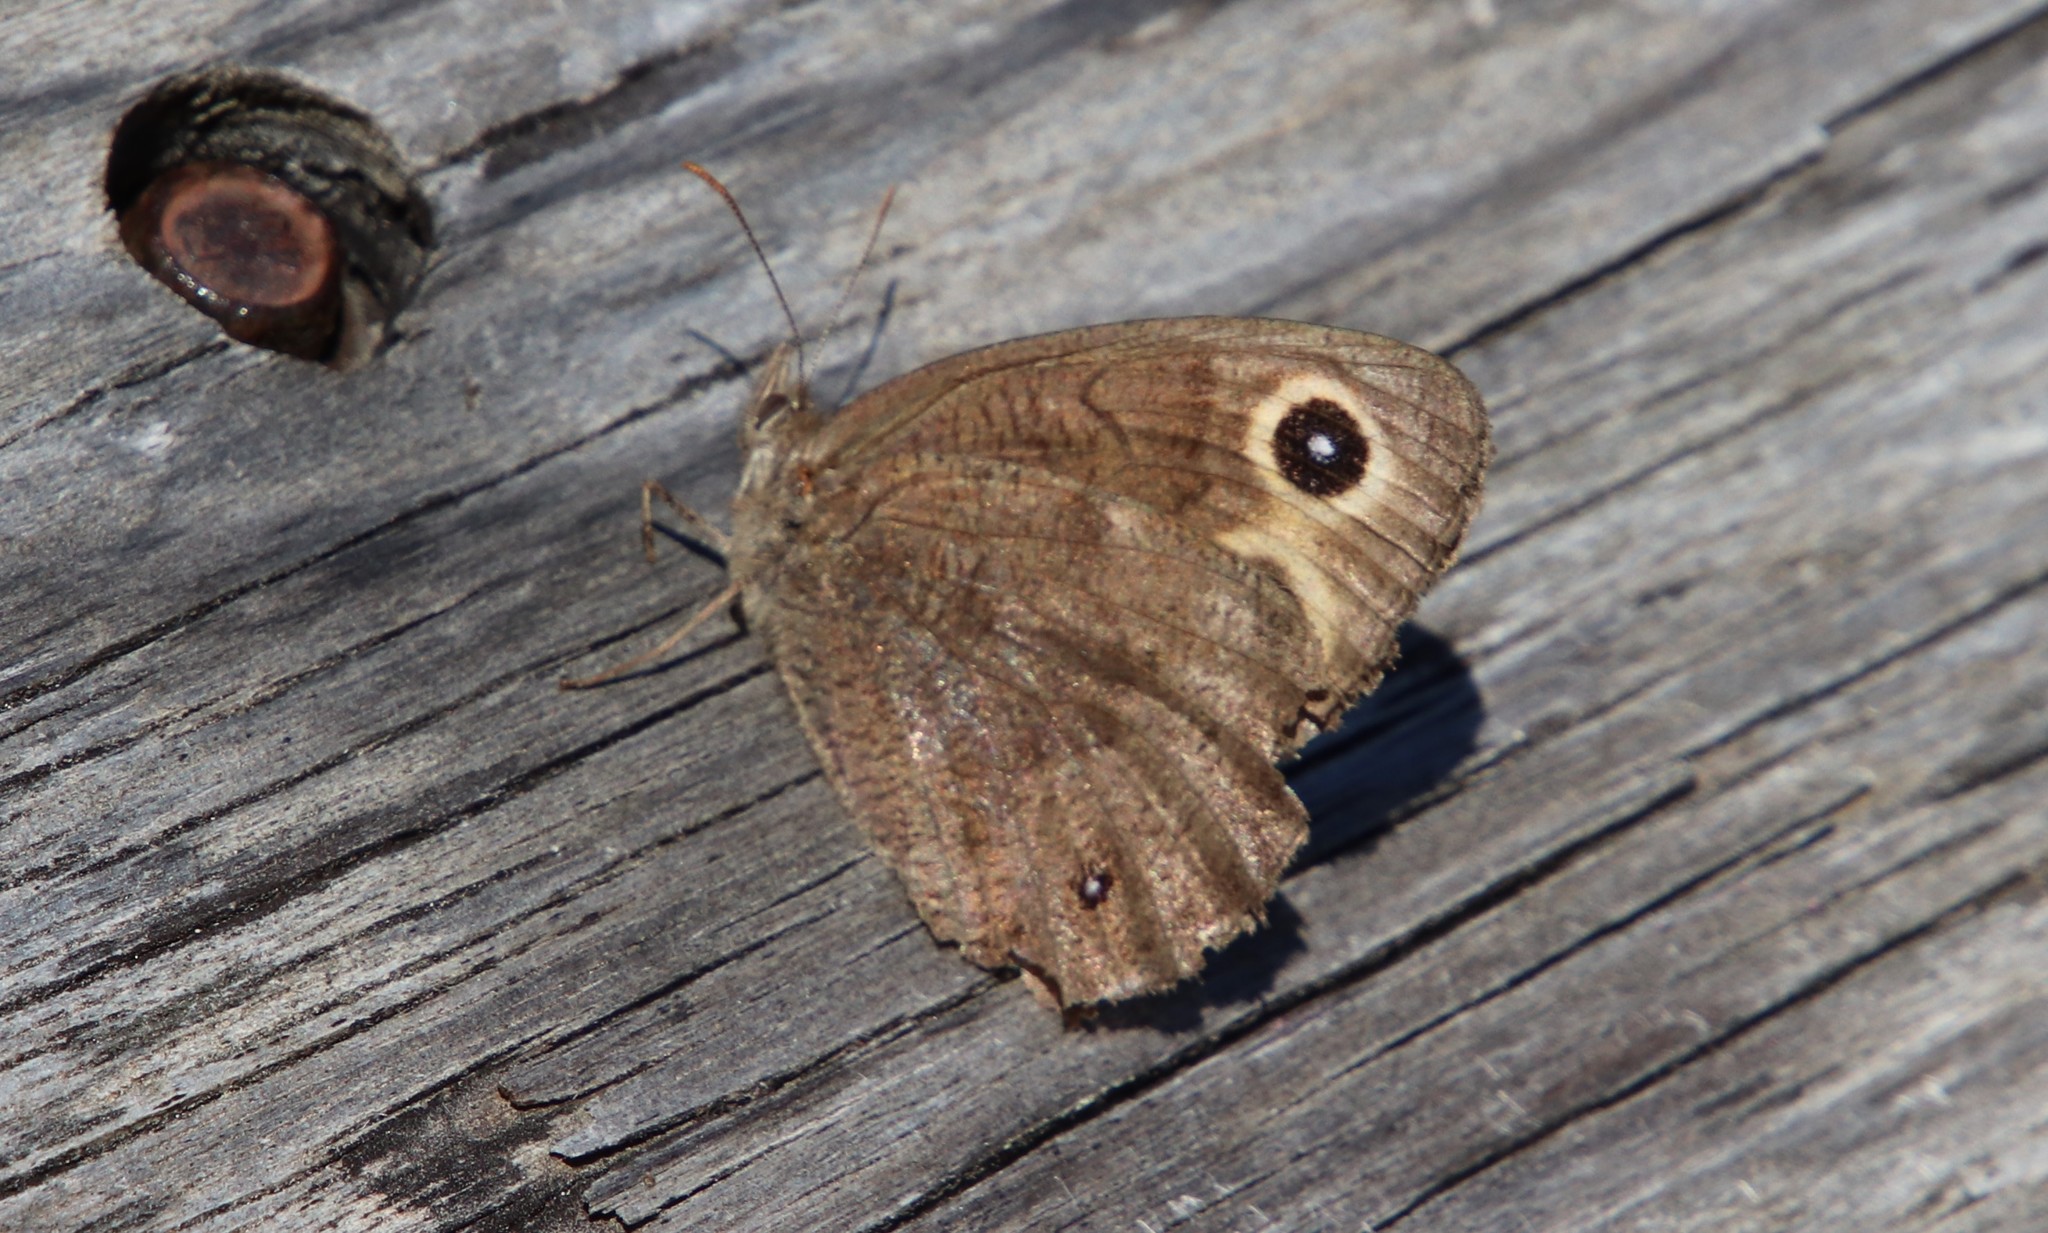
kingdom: Animalia
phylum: Arthropoda
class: Insecta
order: Lepidoptera
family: Nymphalidae
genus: Cercyonis
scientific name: Cercyonis pegala
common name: Common wood-nymph
